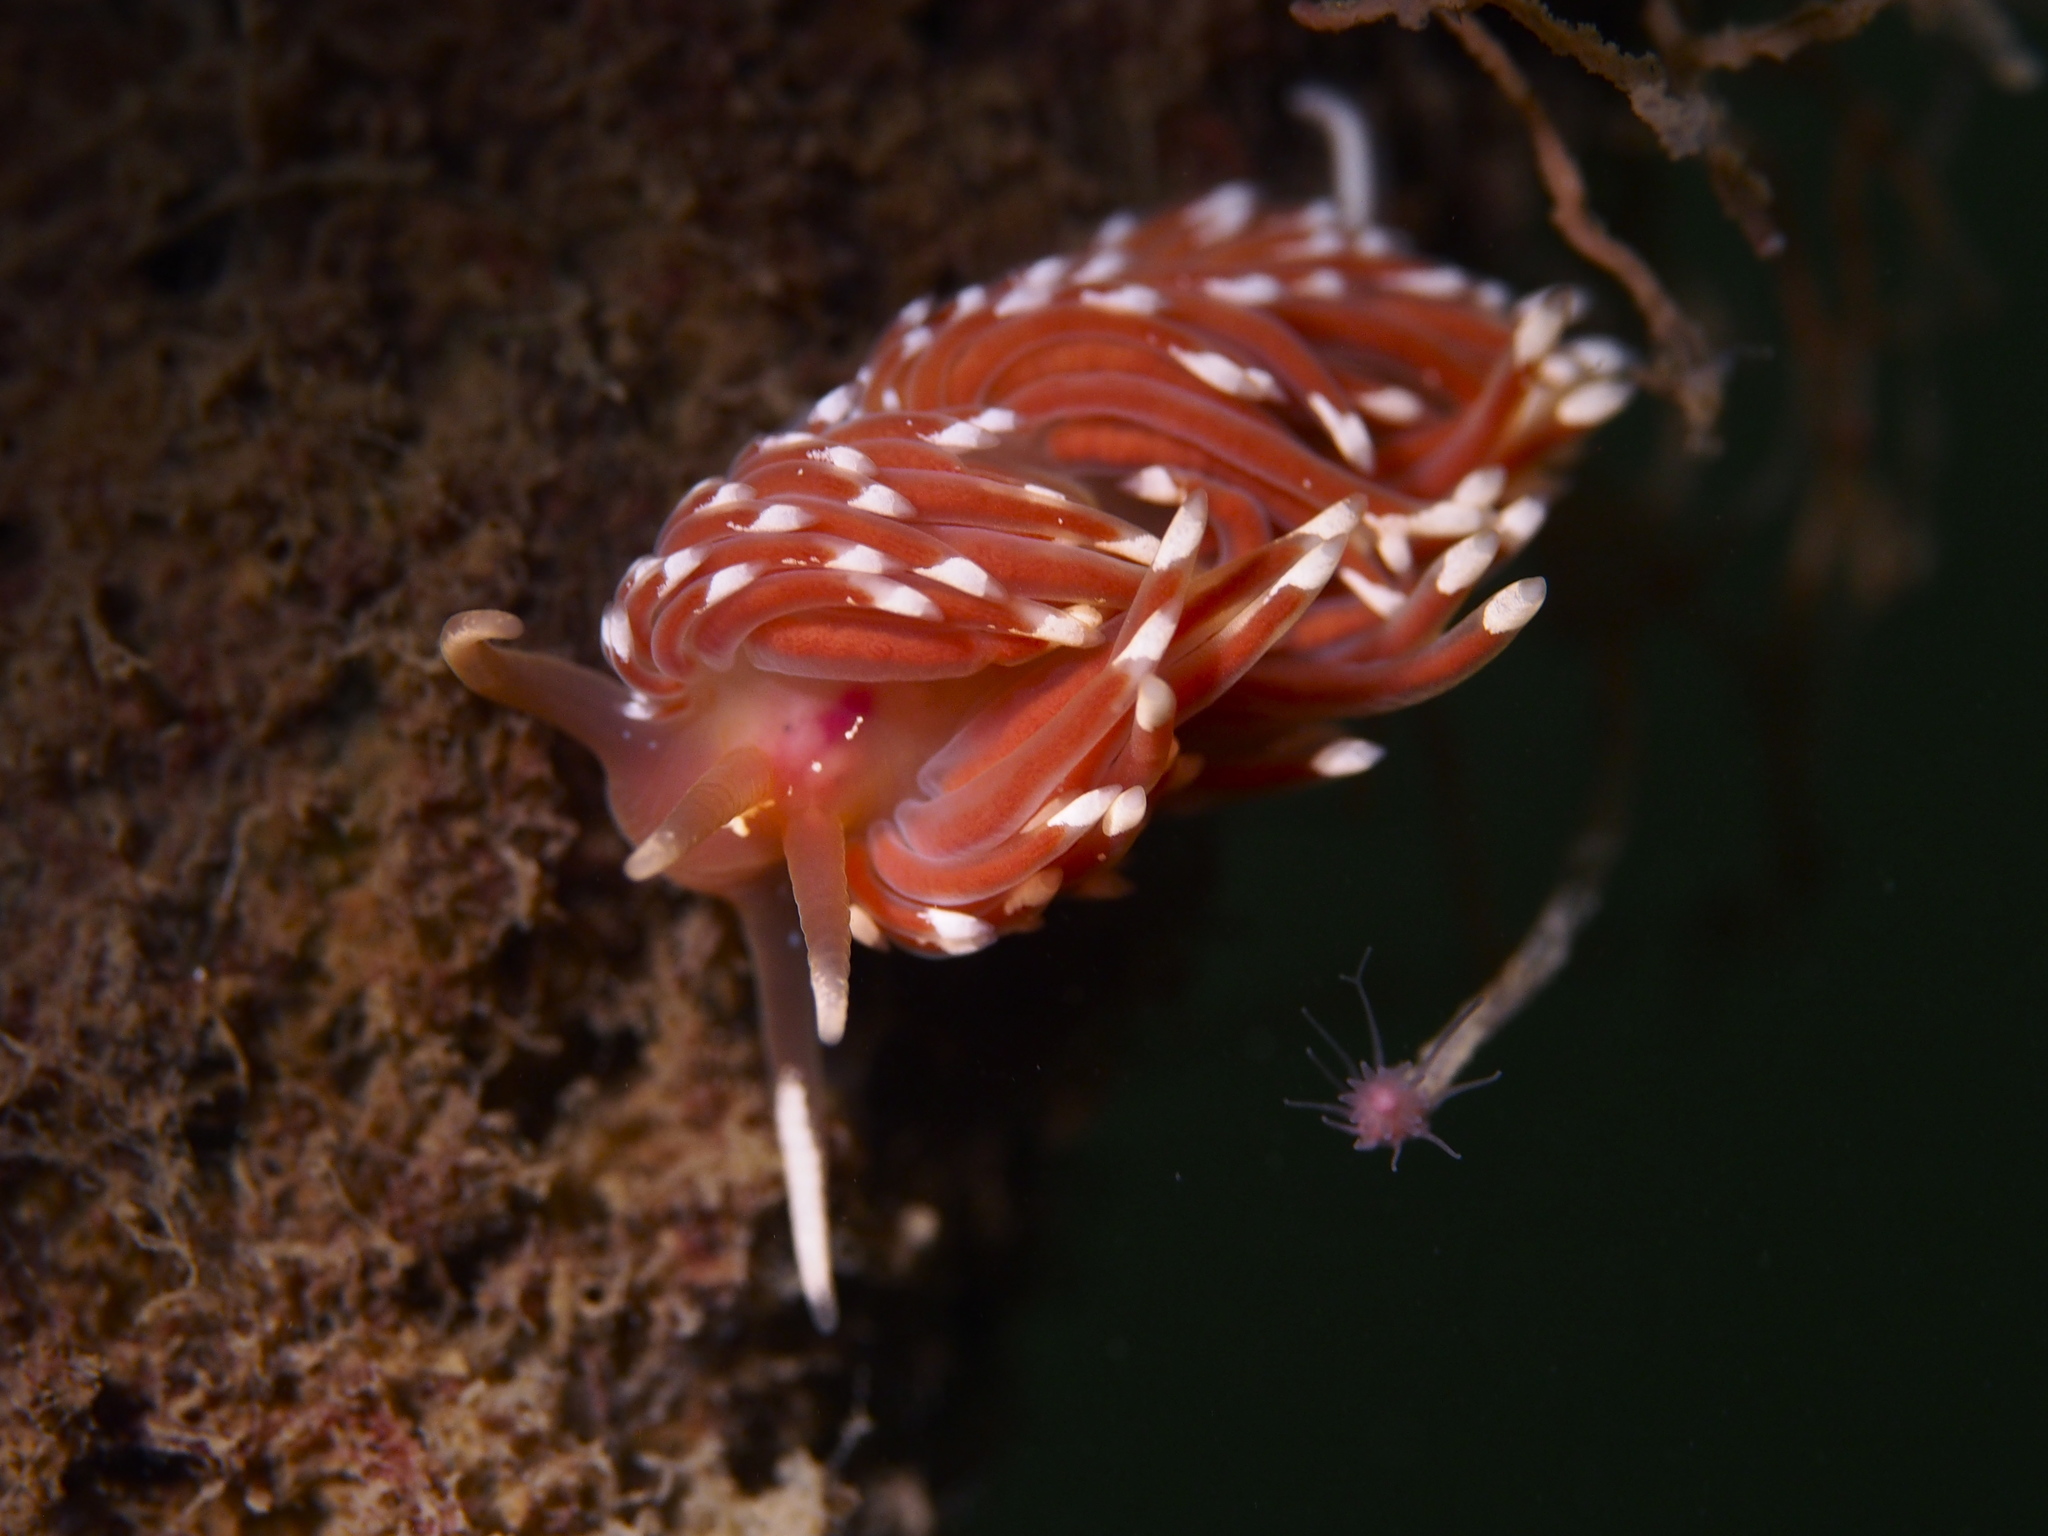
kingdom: Animalia
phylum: Mollusca
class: Gastropoda
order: Nudibranchia
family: Facelinidae
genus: Facelina
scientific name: Facelina bostoniensis
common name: Boston facelina
